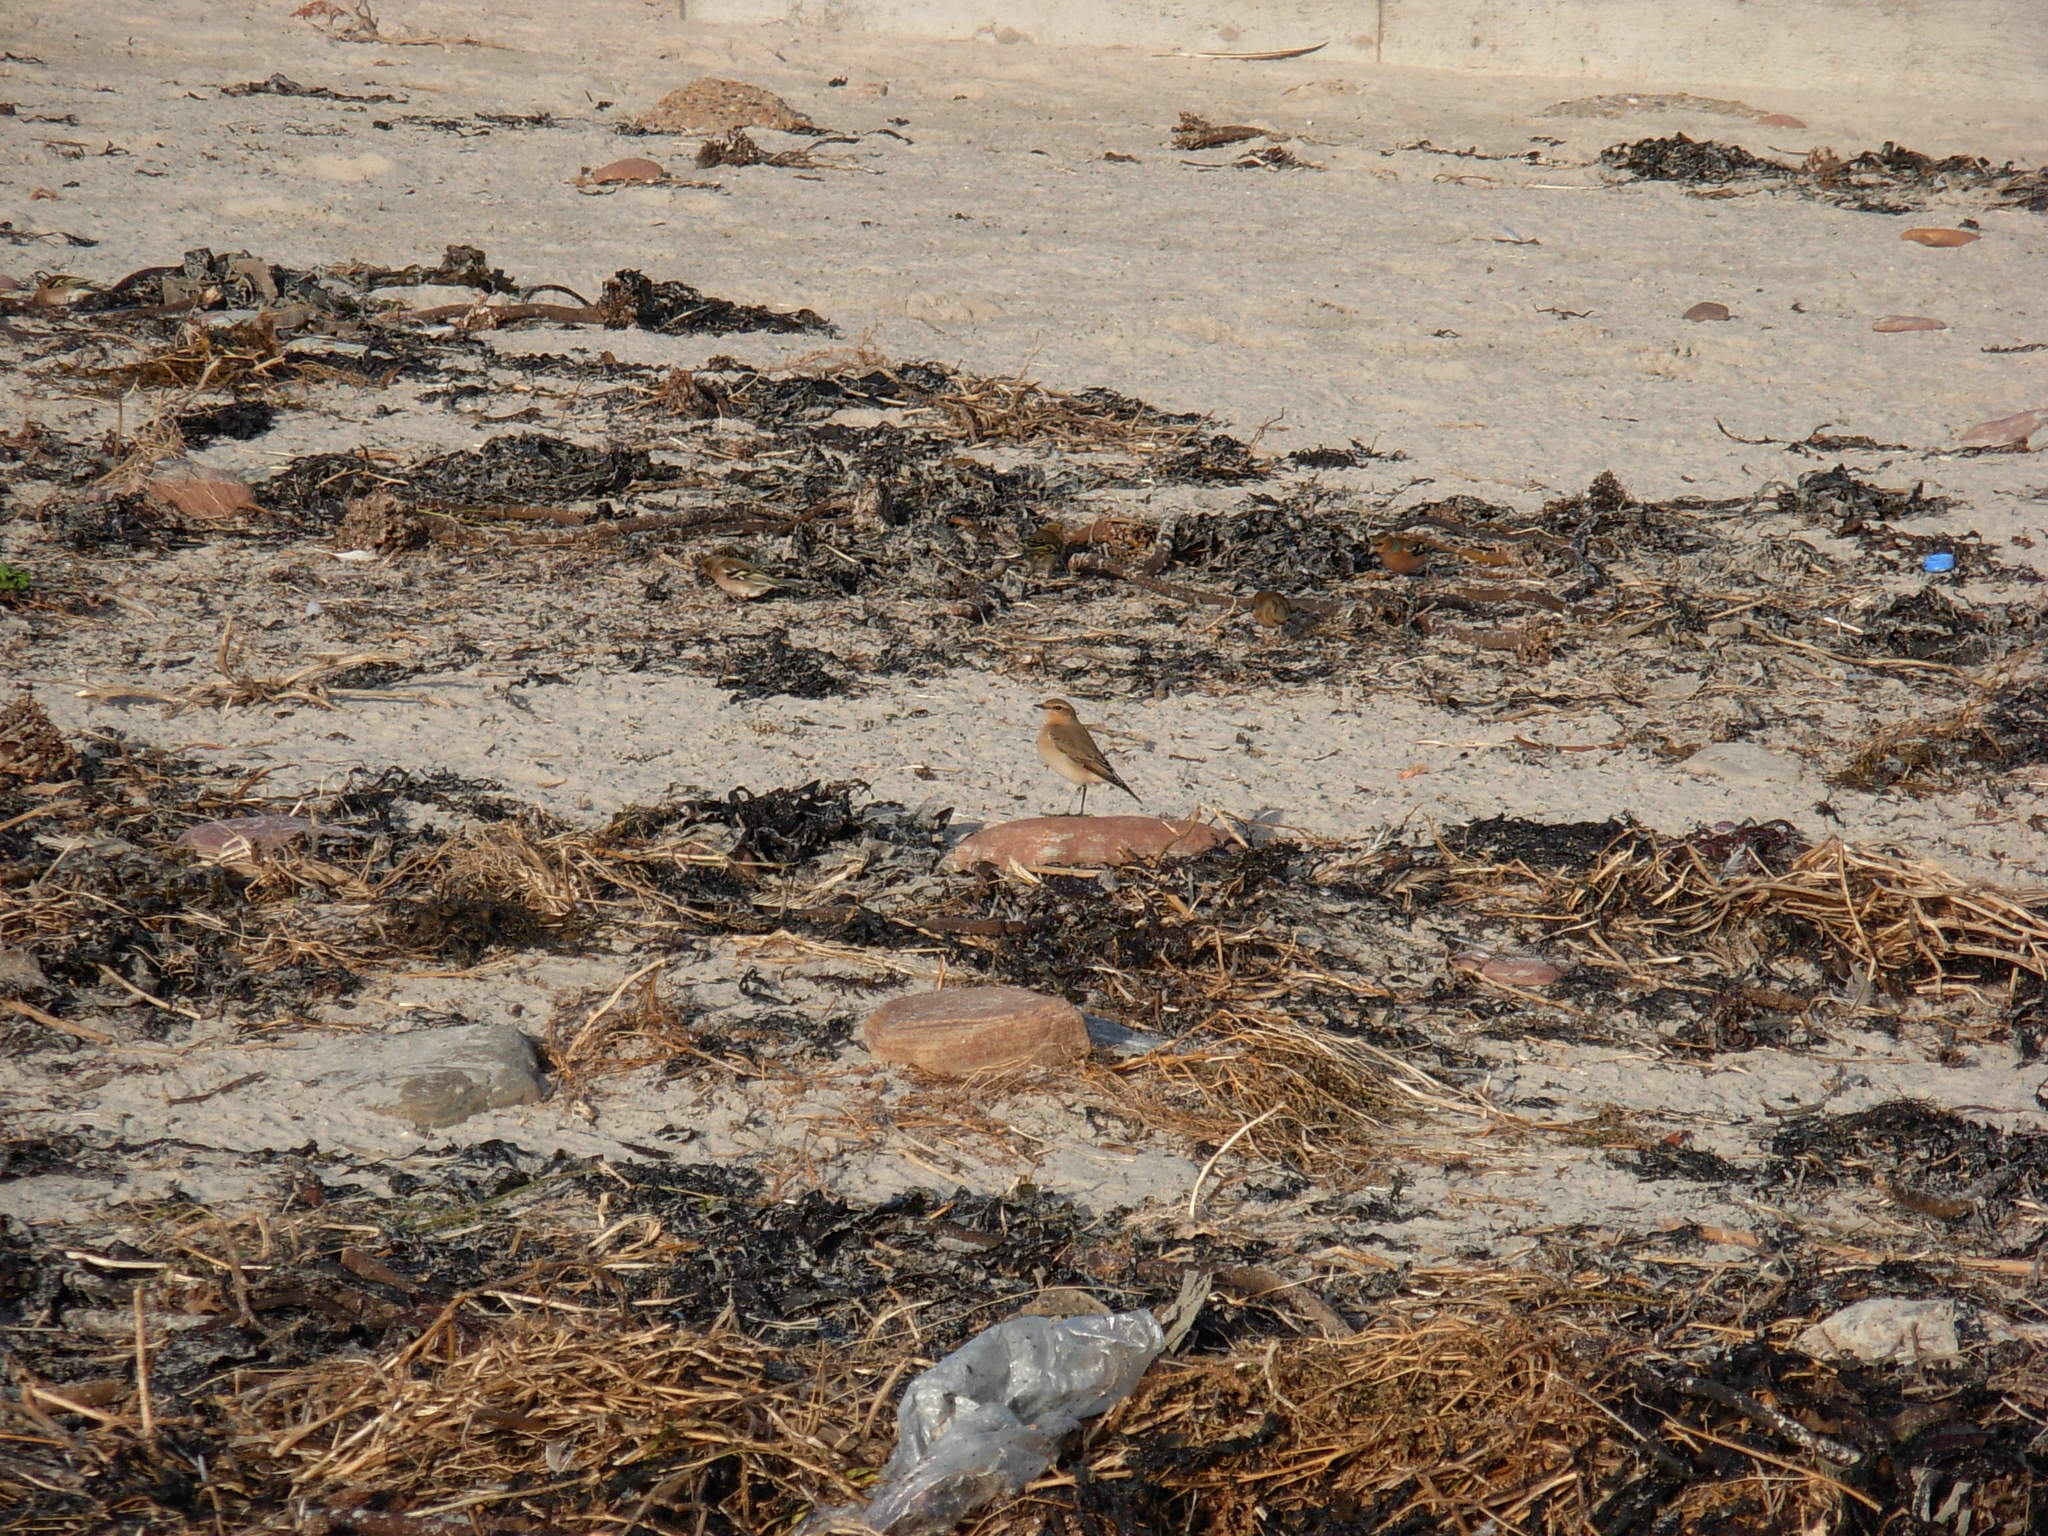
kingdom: Animalia
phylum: Chordata
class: Aves
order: Passeriformes
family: Muscicapidae
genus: Oenanthe
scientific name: Oenanthe oenanthe
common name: Northern wheatear
